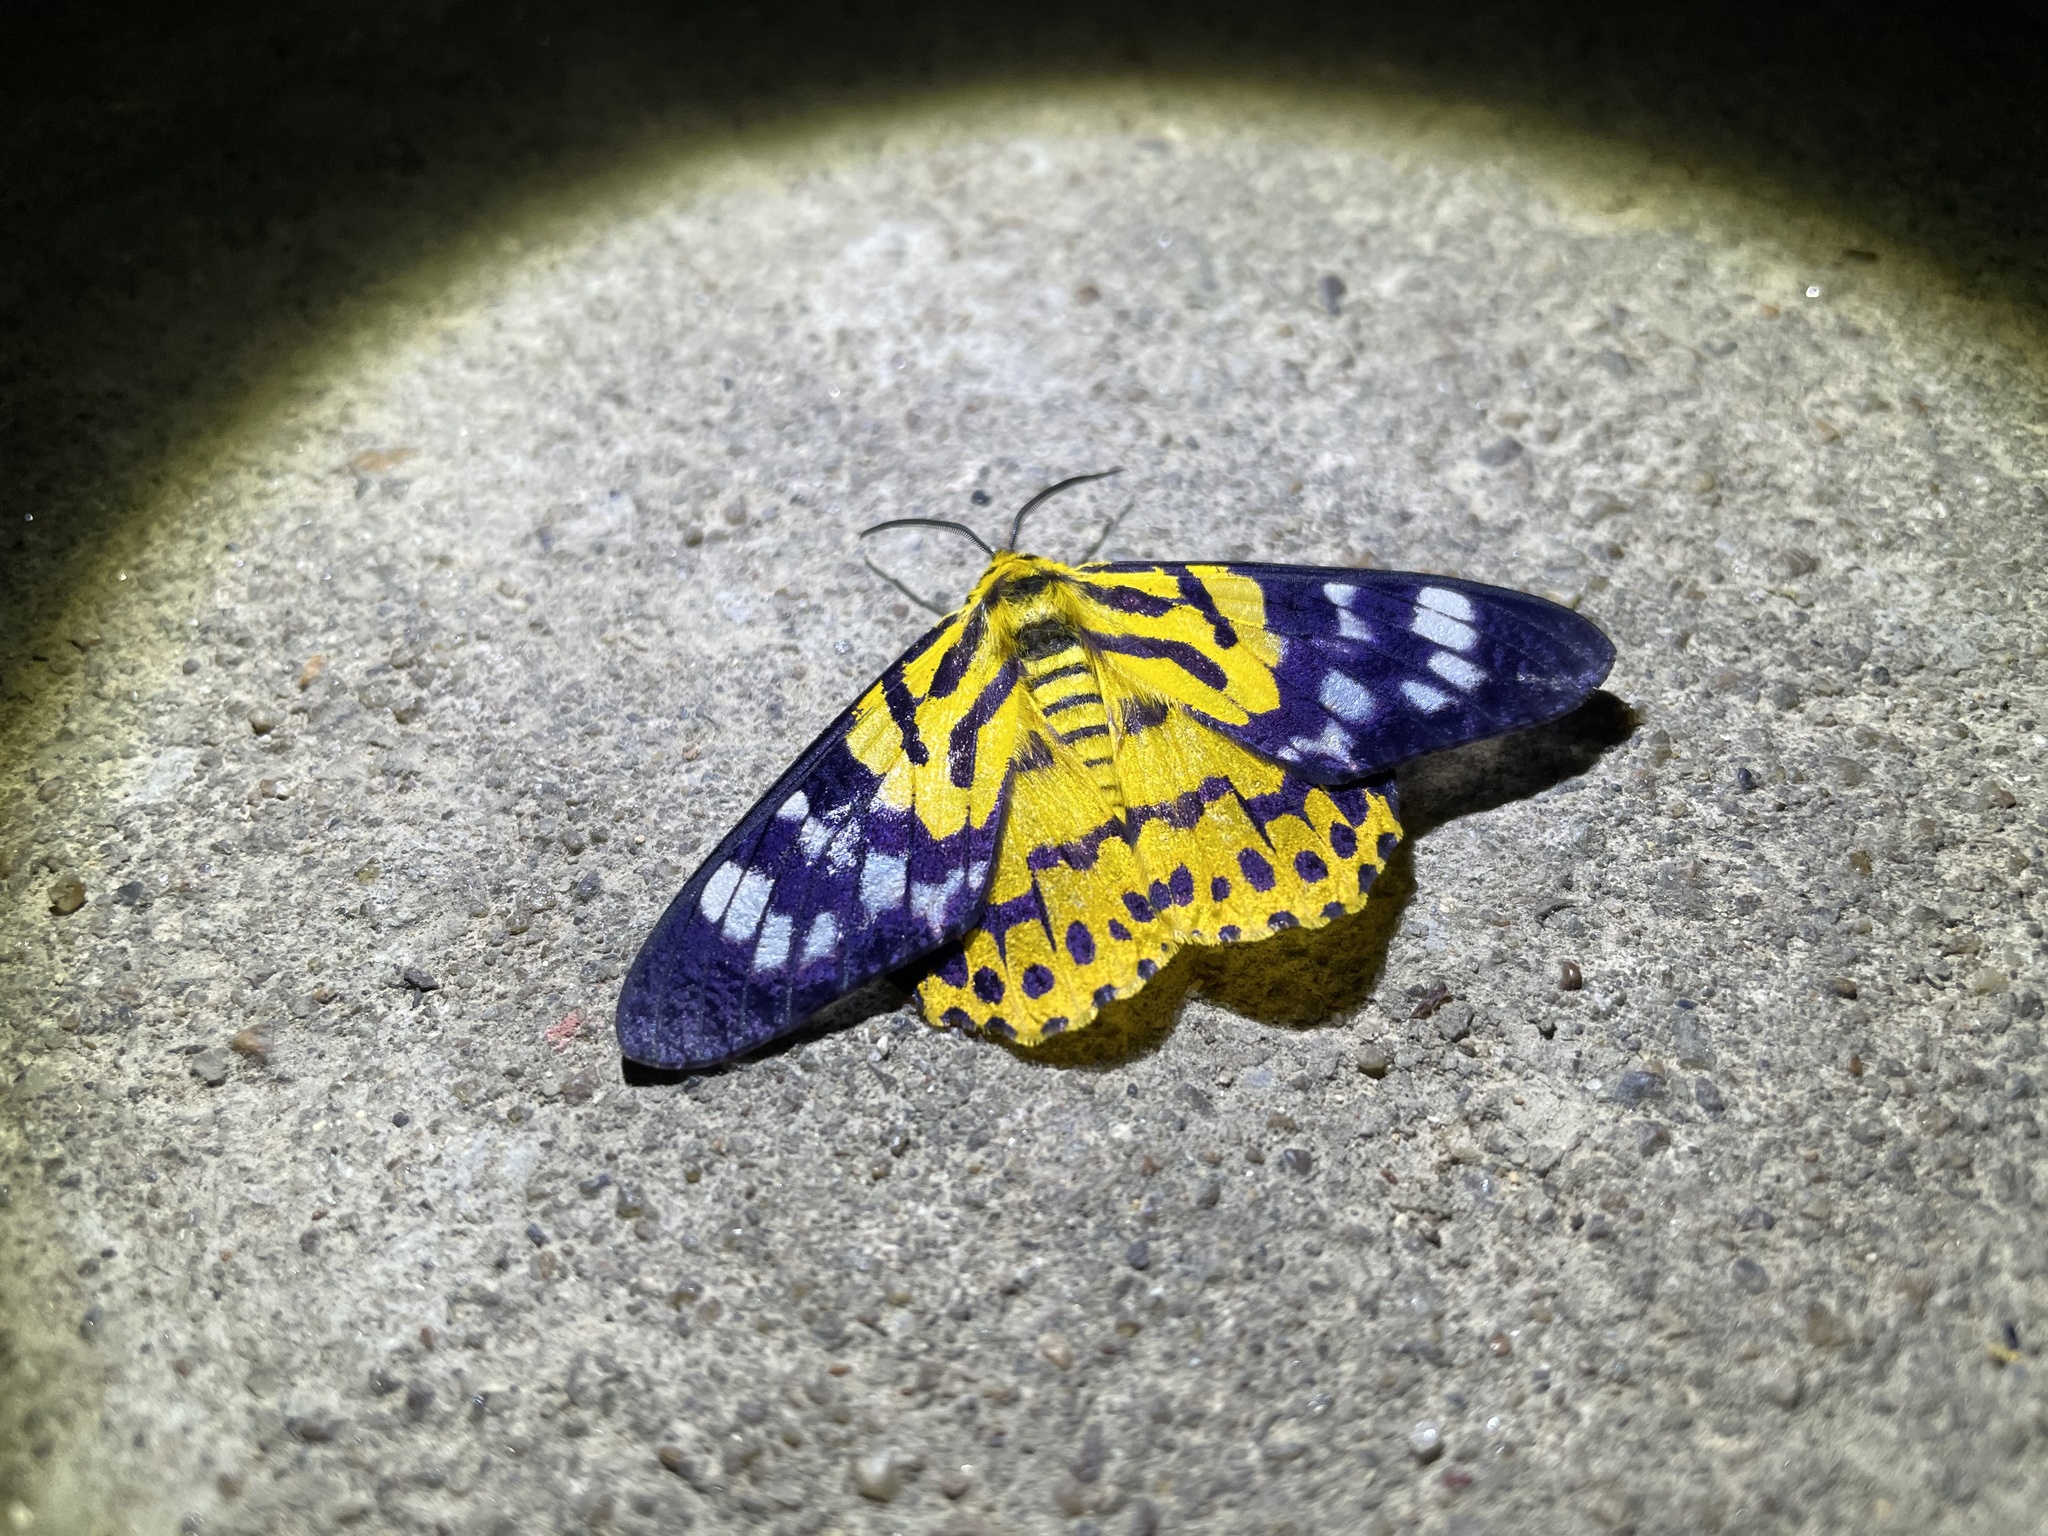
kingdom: Animalia
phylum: Arthropoda
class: Insecta
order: Lepidoptera
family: Geometridae
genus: Dysphania
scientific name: Dysphania militaris
